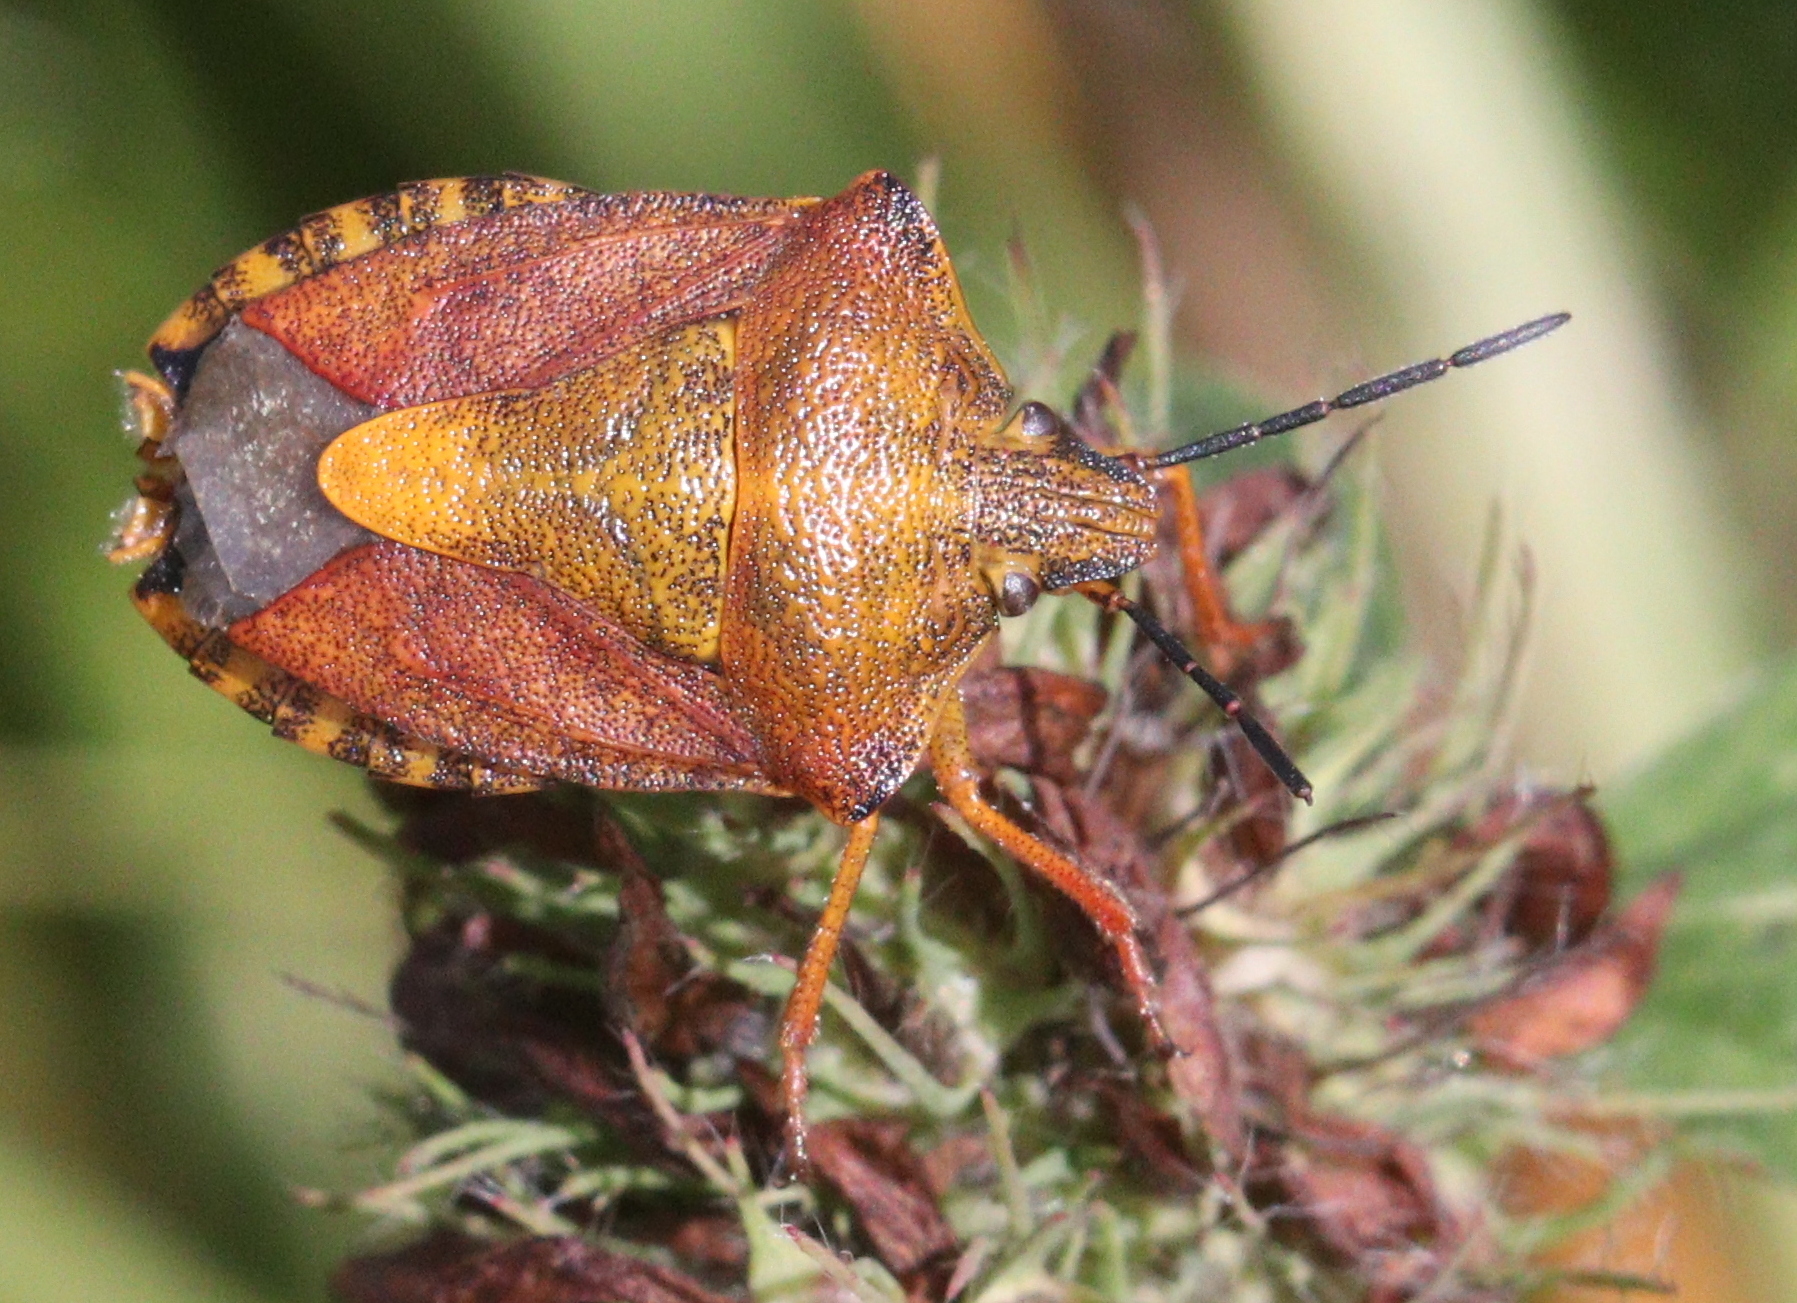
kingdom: Animalia
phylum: Arthropoda
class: Insecta
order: Hemiptera
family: Pentatomidae
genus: Carpocoris
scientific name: Carpocoris purpureipennis
